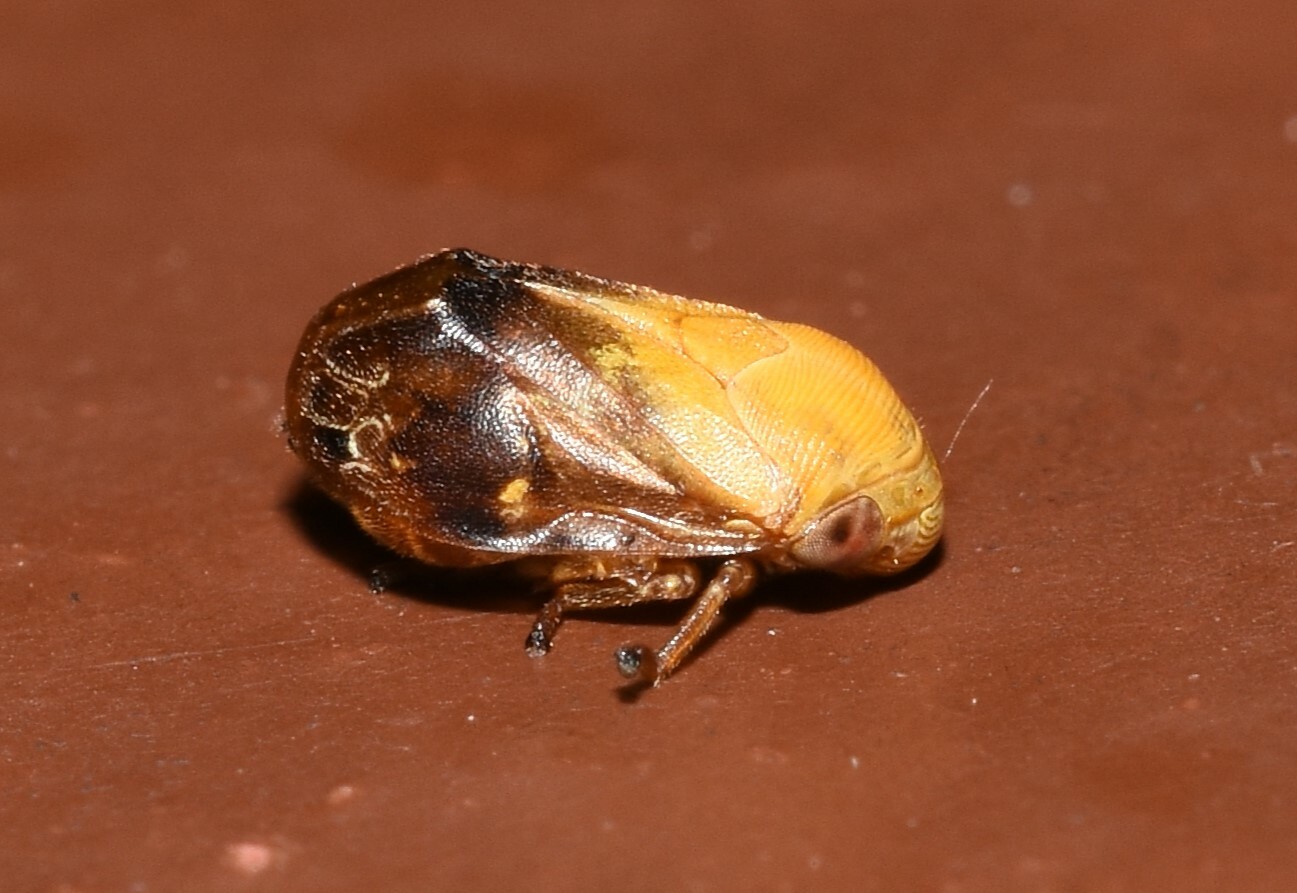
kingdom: Animalia
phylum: Arthropoda
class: Insecta
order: Hemiptera
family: Clastopteridae
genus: Clastoptera
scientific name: Clastoptera achatina
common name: Pecan spittlebug
